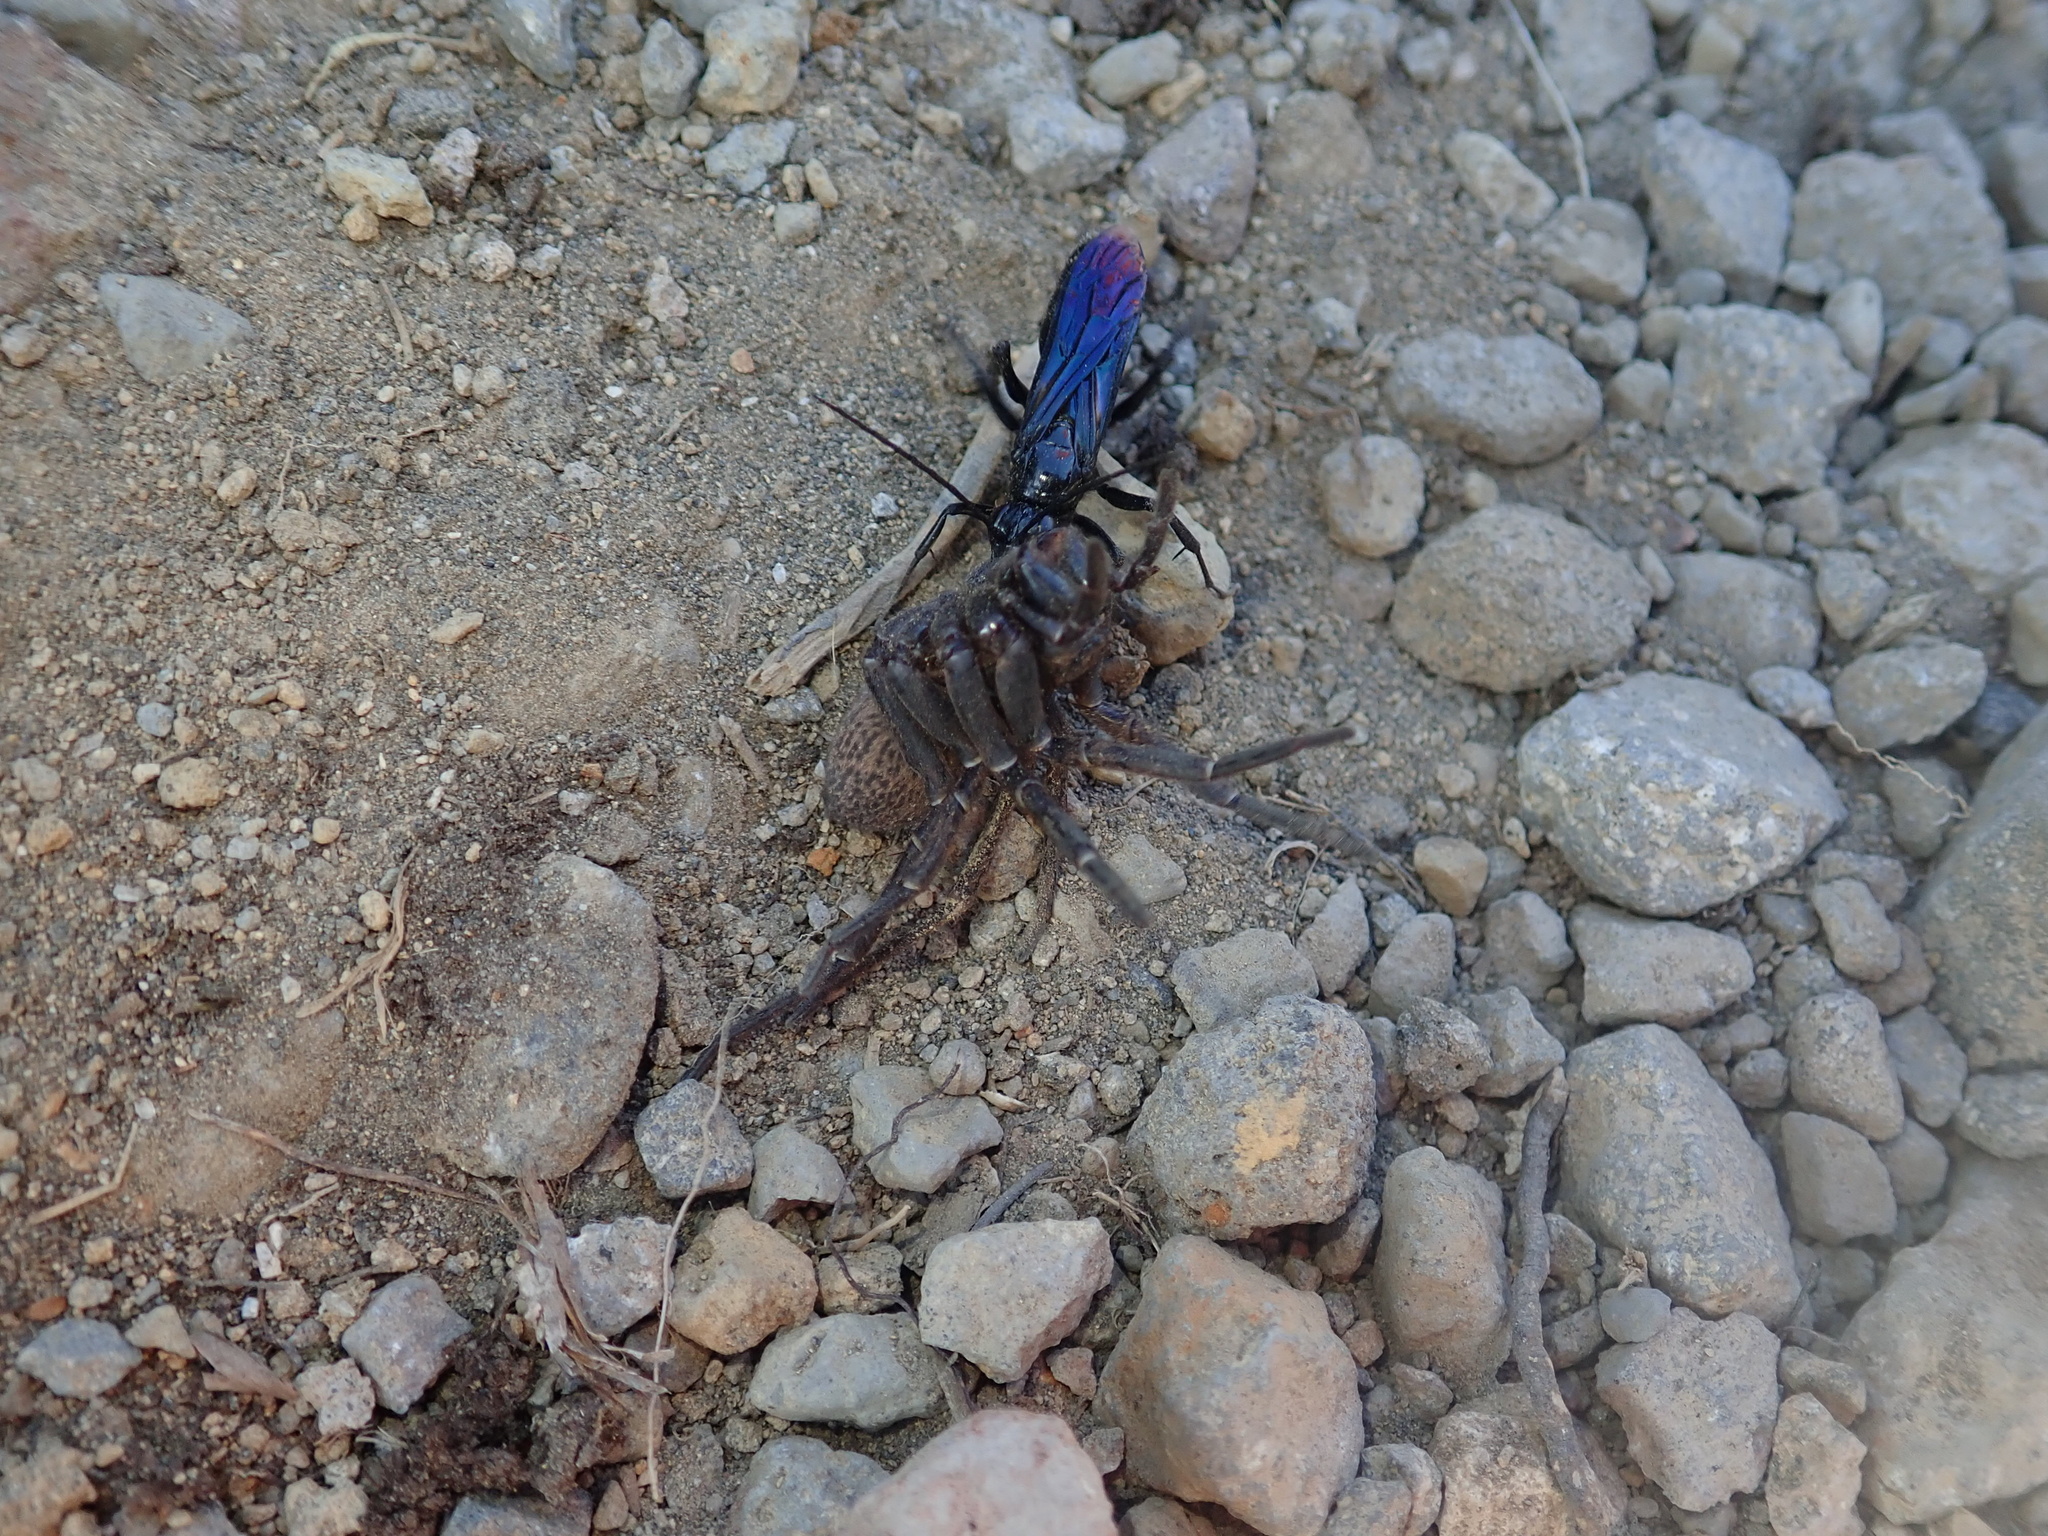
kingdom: Animalia
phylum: Arthropoda
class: Insecta
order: Hymenoptera
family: Pompilidae
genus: Priocnemis
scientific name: Priocnemis monachus
